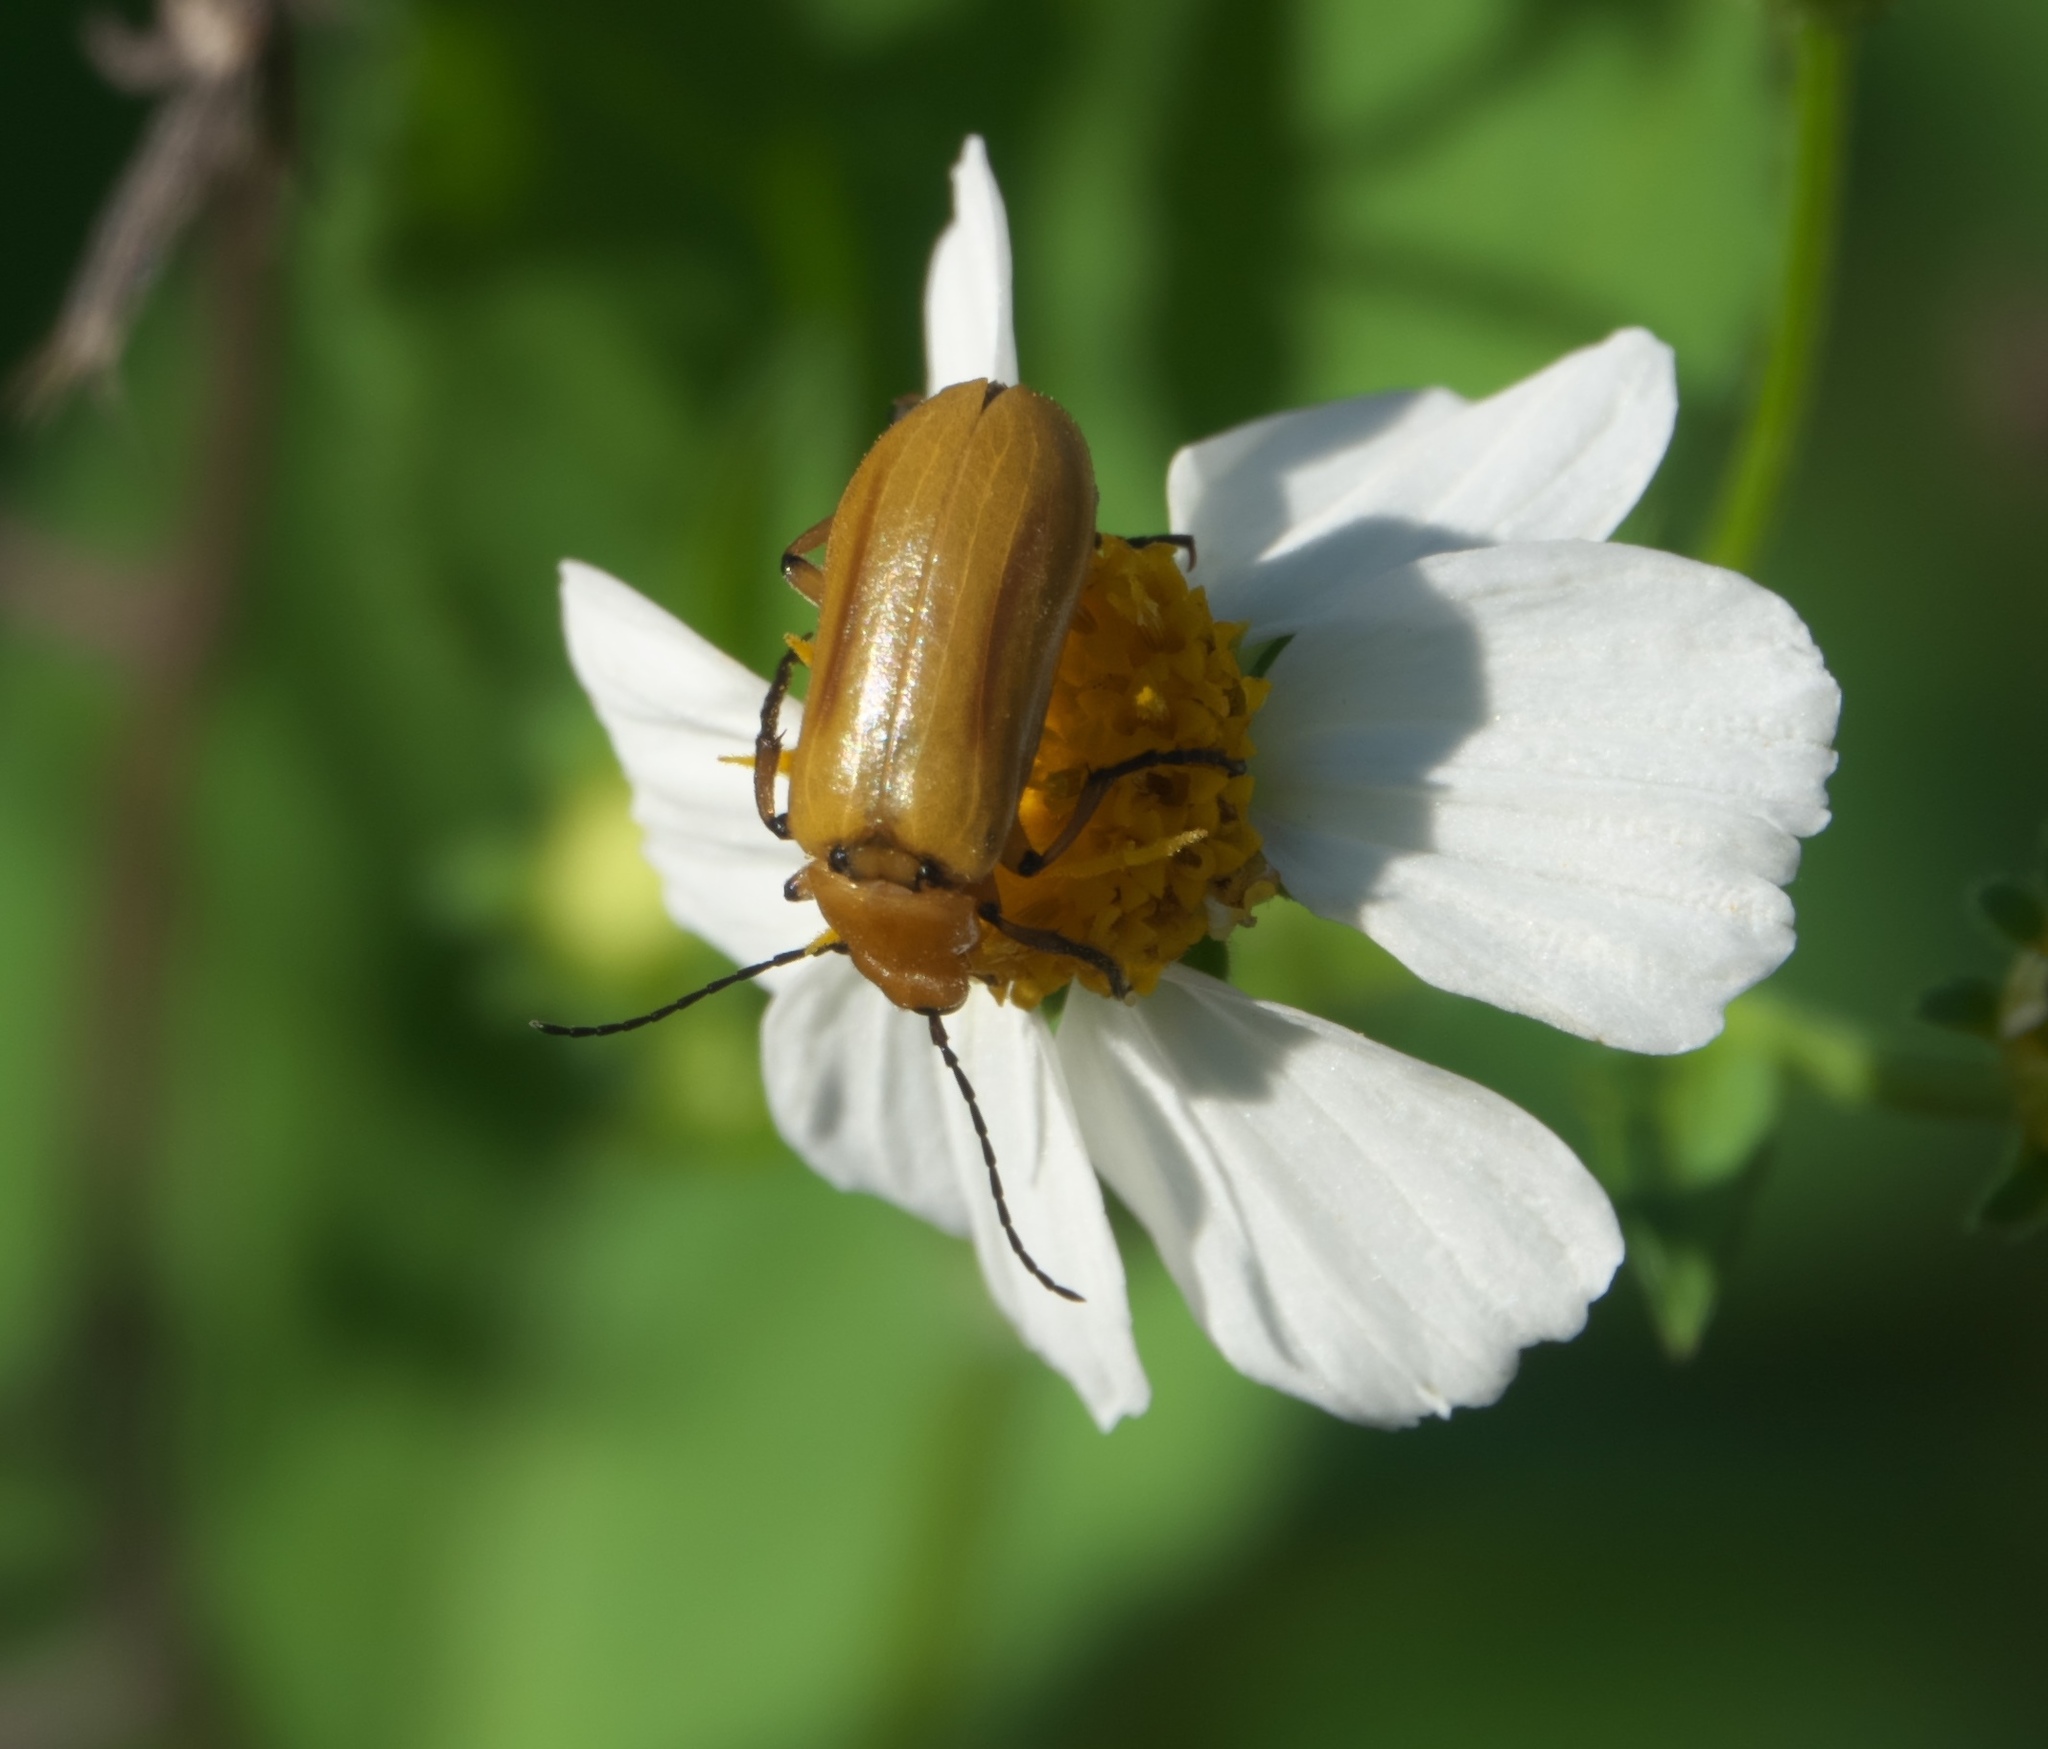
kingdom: Animalia
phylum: Arthropoda
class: Insecta
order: Coleoptera
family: Meloidae
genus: Nemognatha
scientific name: Nemognatha punctulata
